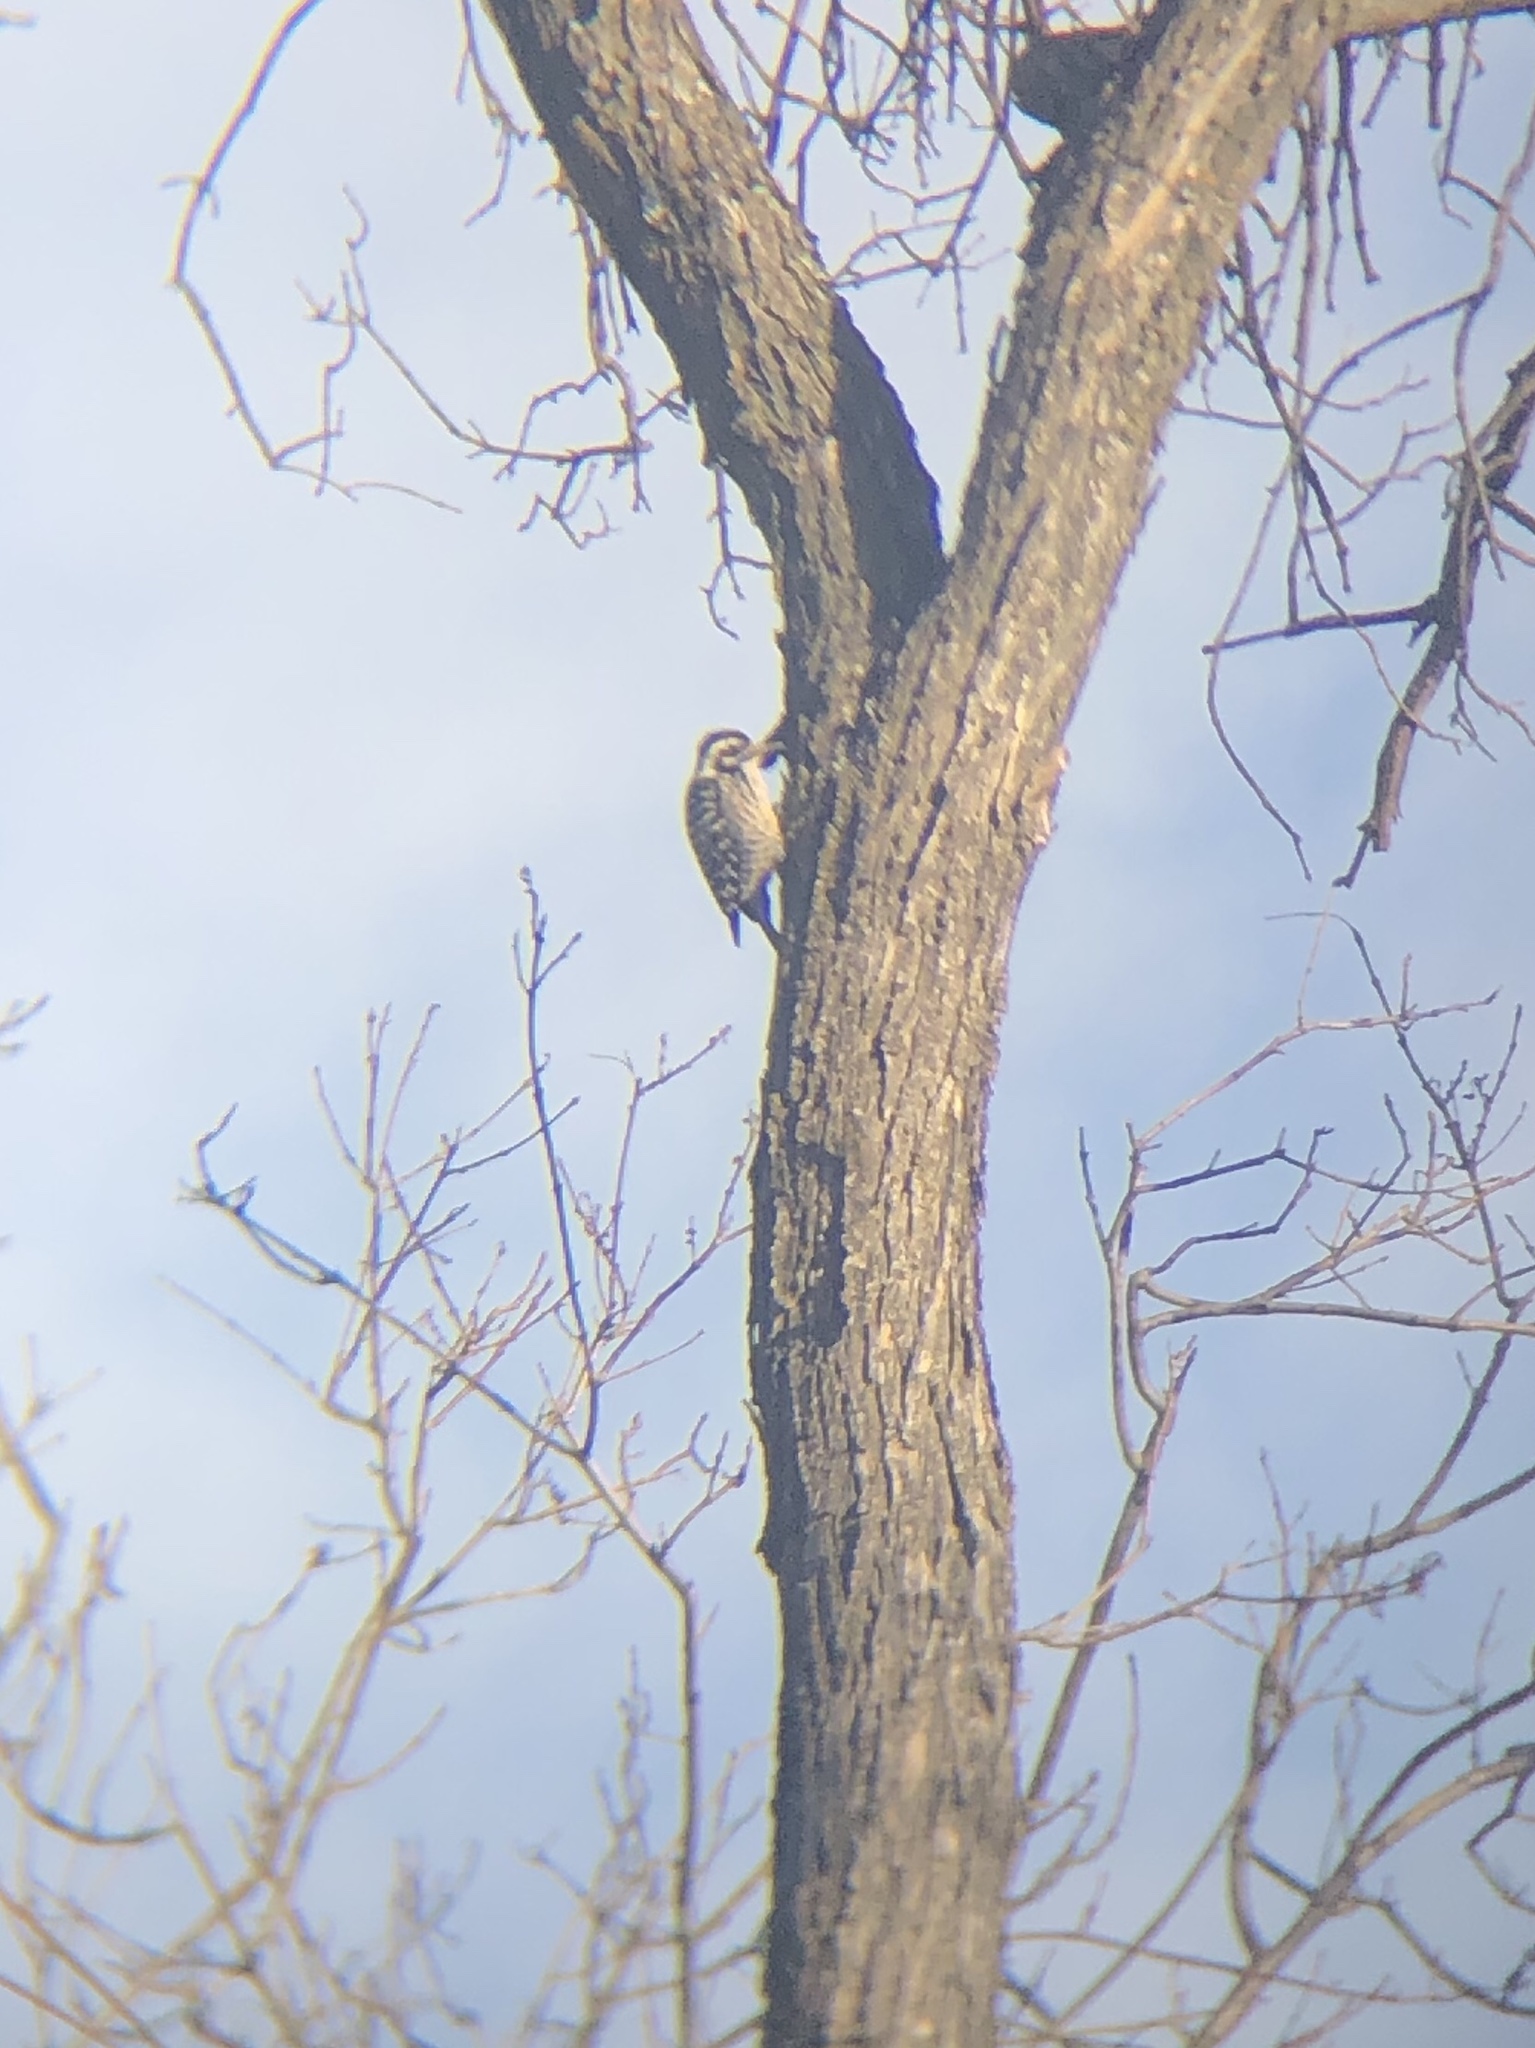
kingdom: Animalia
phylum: Chordata
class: Aves
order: Piciformes
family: Picidae
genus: Dryobates
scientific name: Dryobates nuttallii
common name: Nuttall's woodpecker
